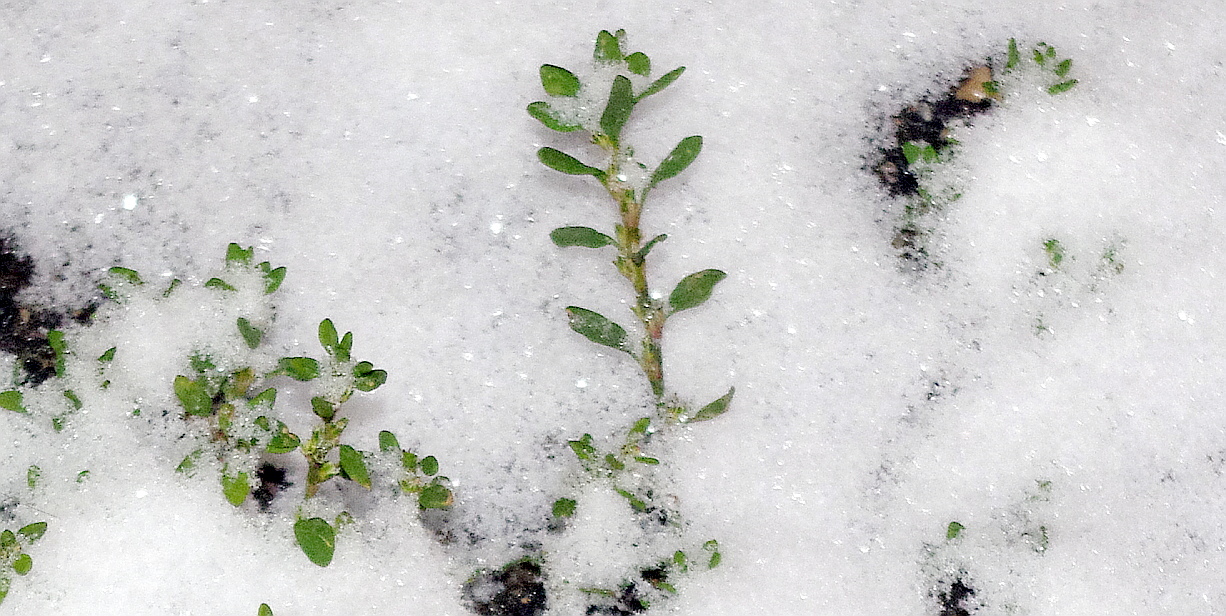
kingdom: Plantae
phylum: Tracheophyta
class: Magnoliopsida
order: Caryophyllales
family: Polygonaceae
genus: Polygonum
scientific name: Polygonum
